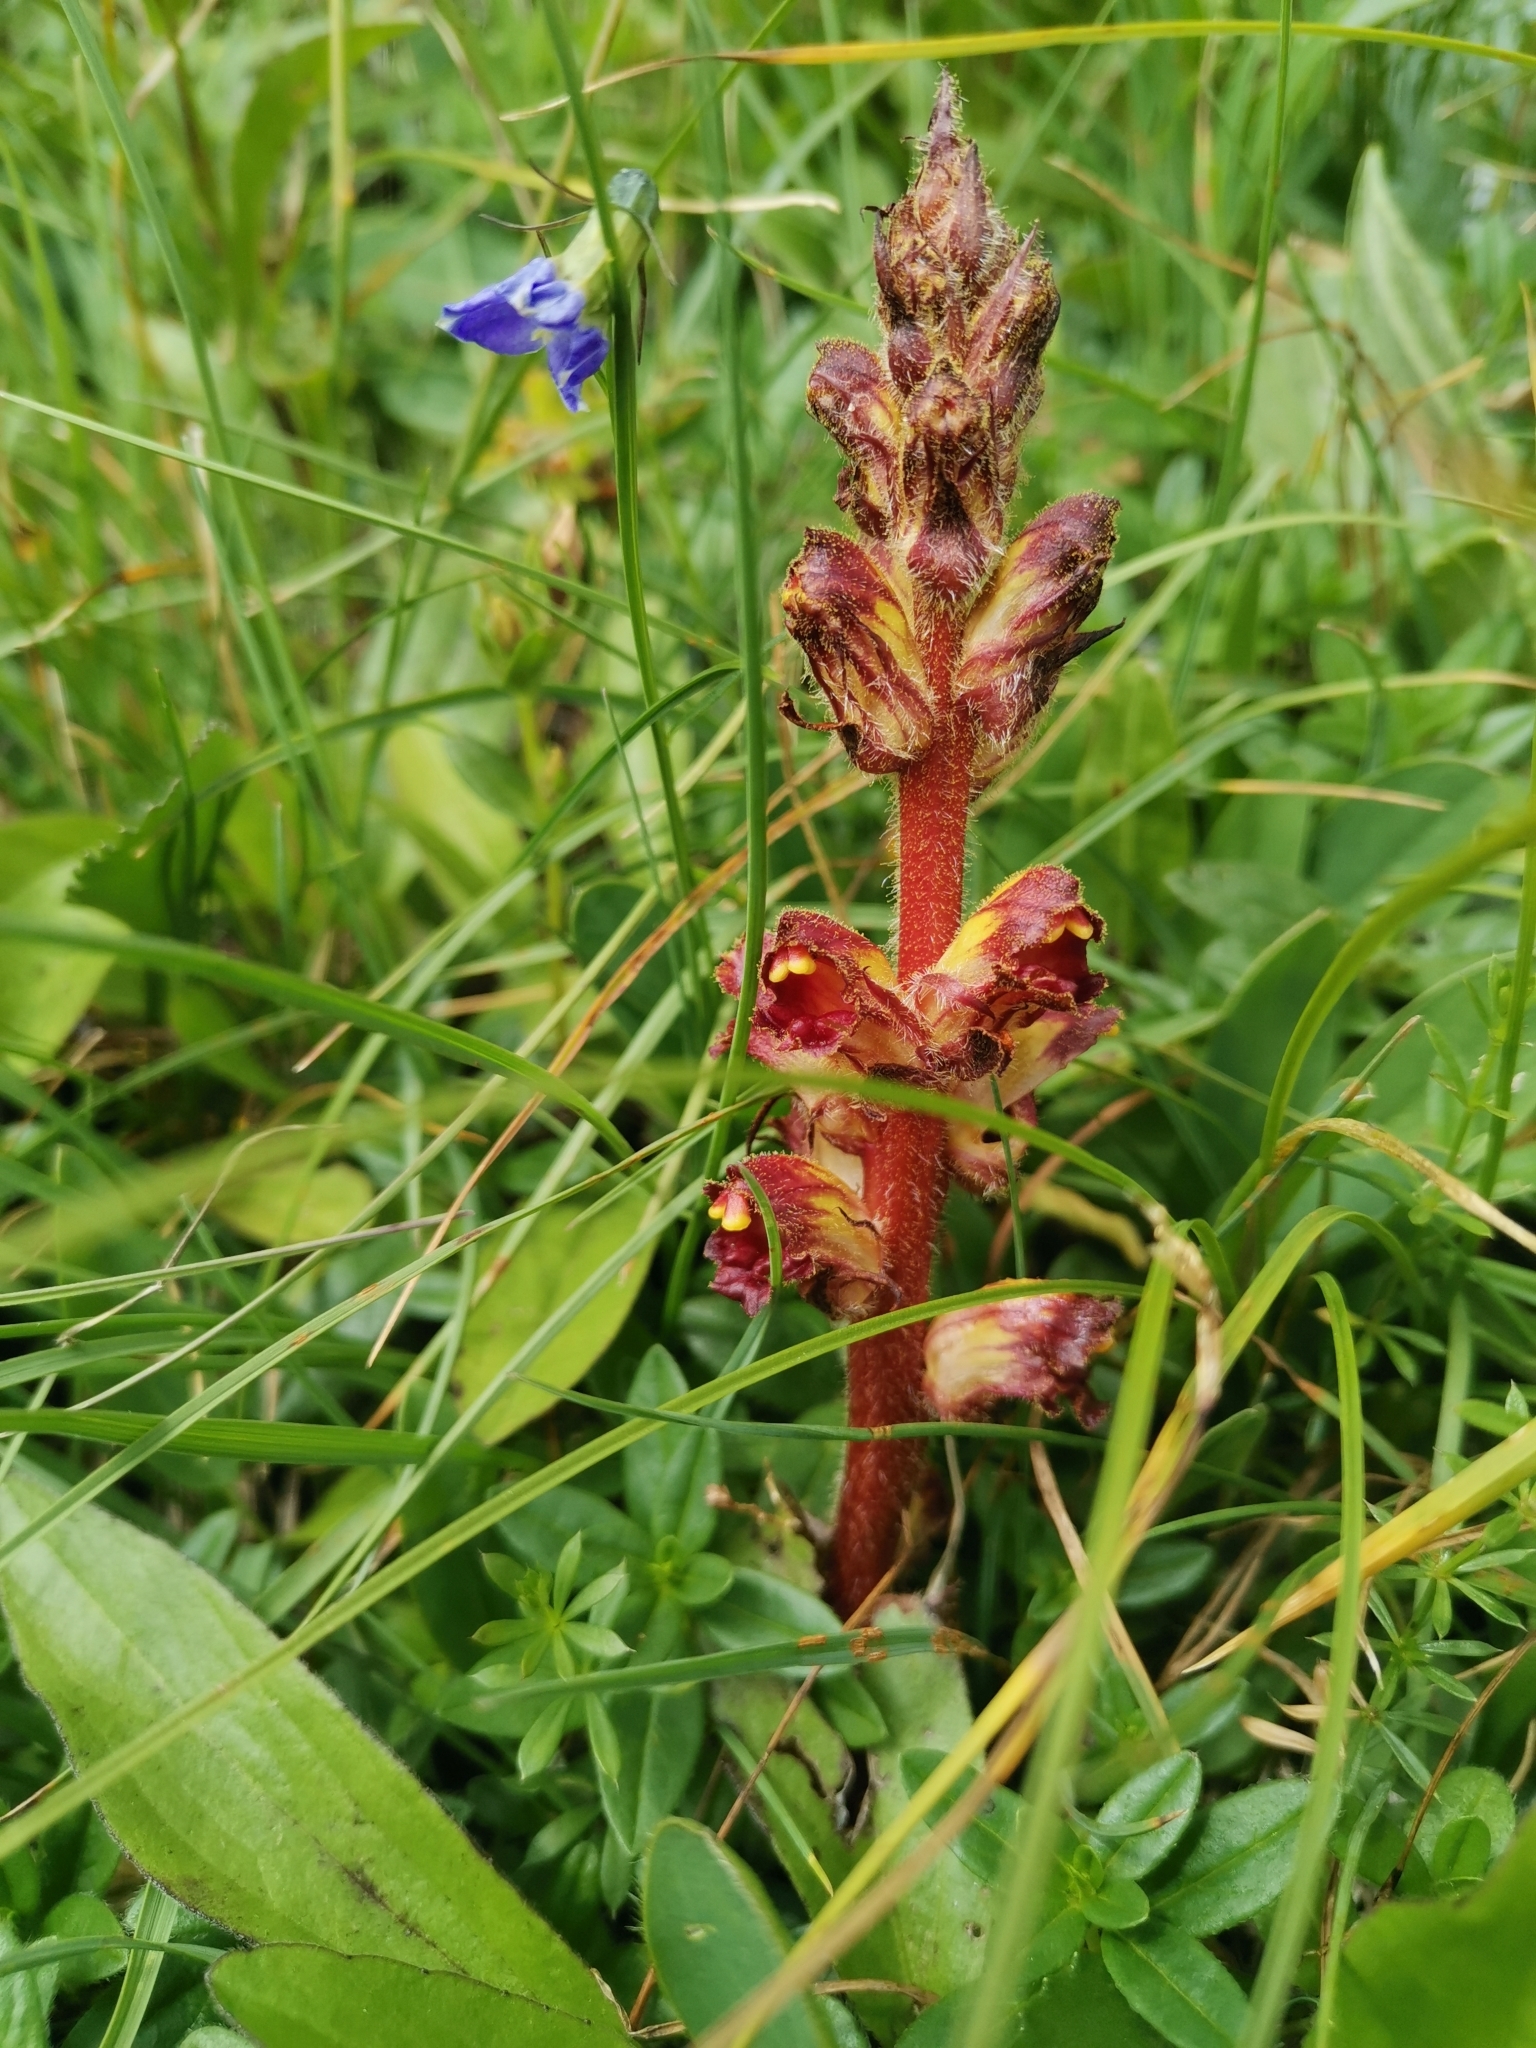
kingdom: Plantae
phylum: Tracheophyta
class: Magnoliopsida
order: Lamiales
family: Orobanchaceae
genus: Orobanche
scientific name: Orobanche gracilis
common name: Slender broomrape
